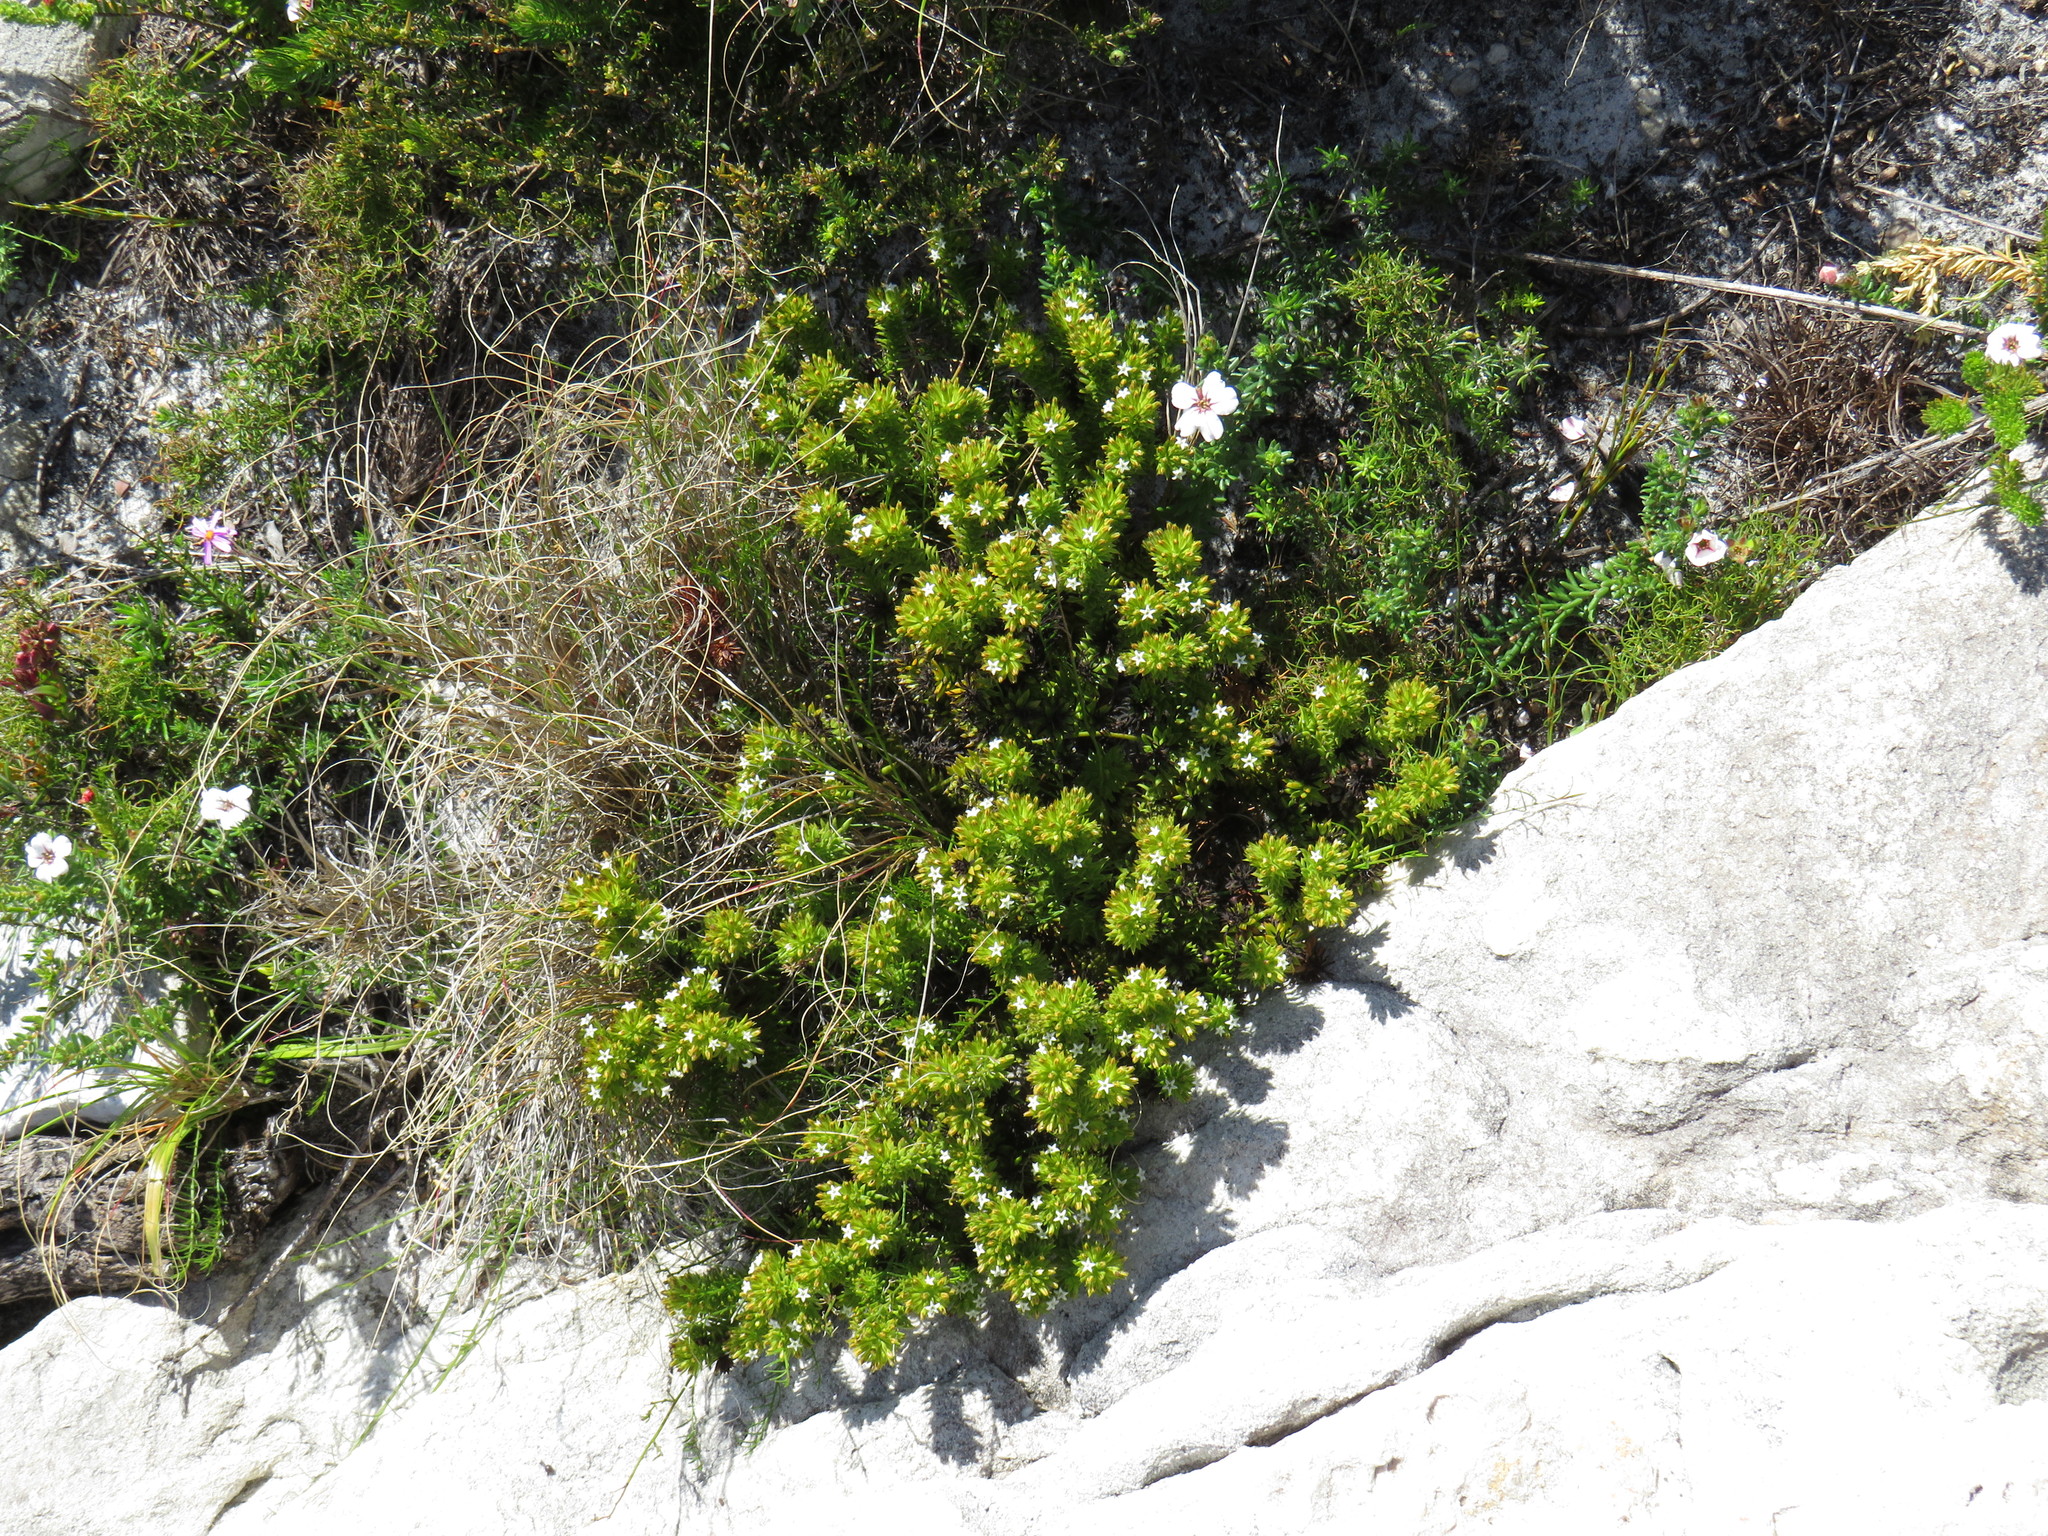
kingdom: Plantae
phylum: Tracheophyta
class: Magnoliopsida
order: Santalales
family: Thesiaceae
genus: Thesium
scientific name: Thesium viridifolium
